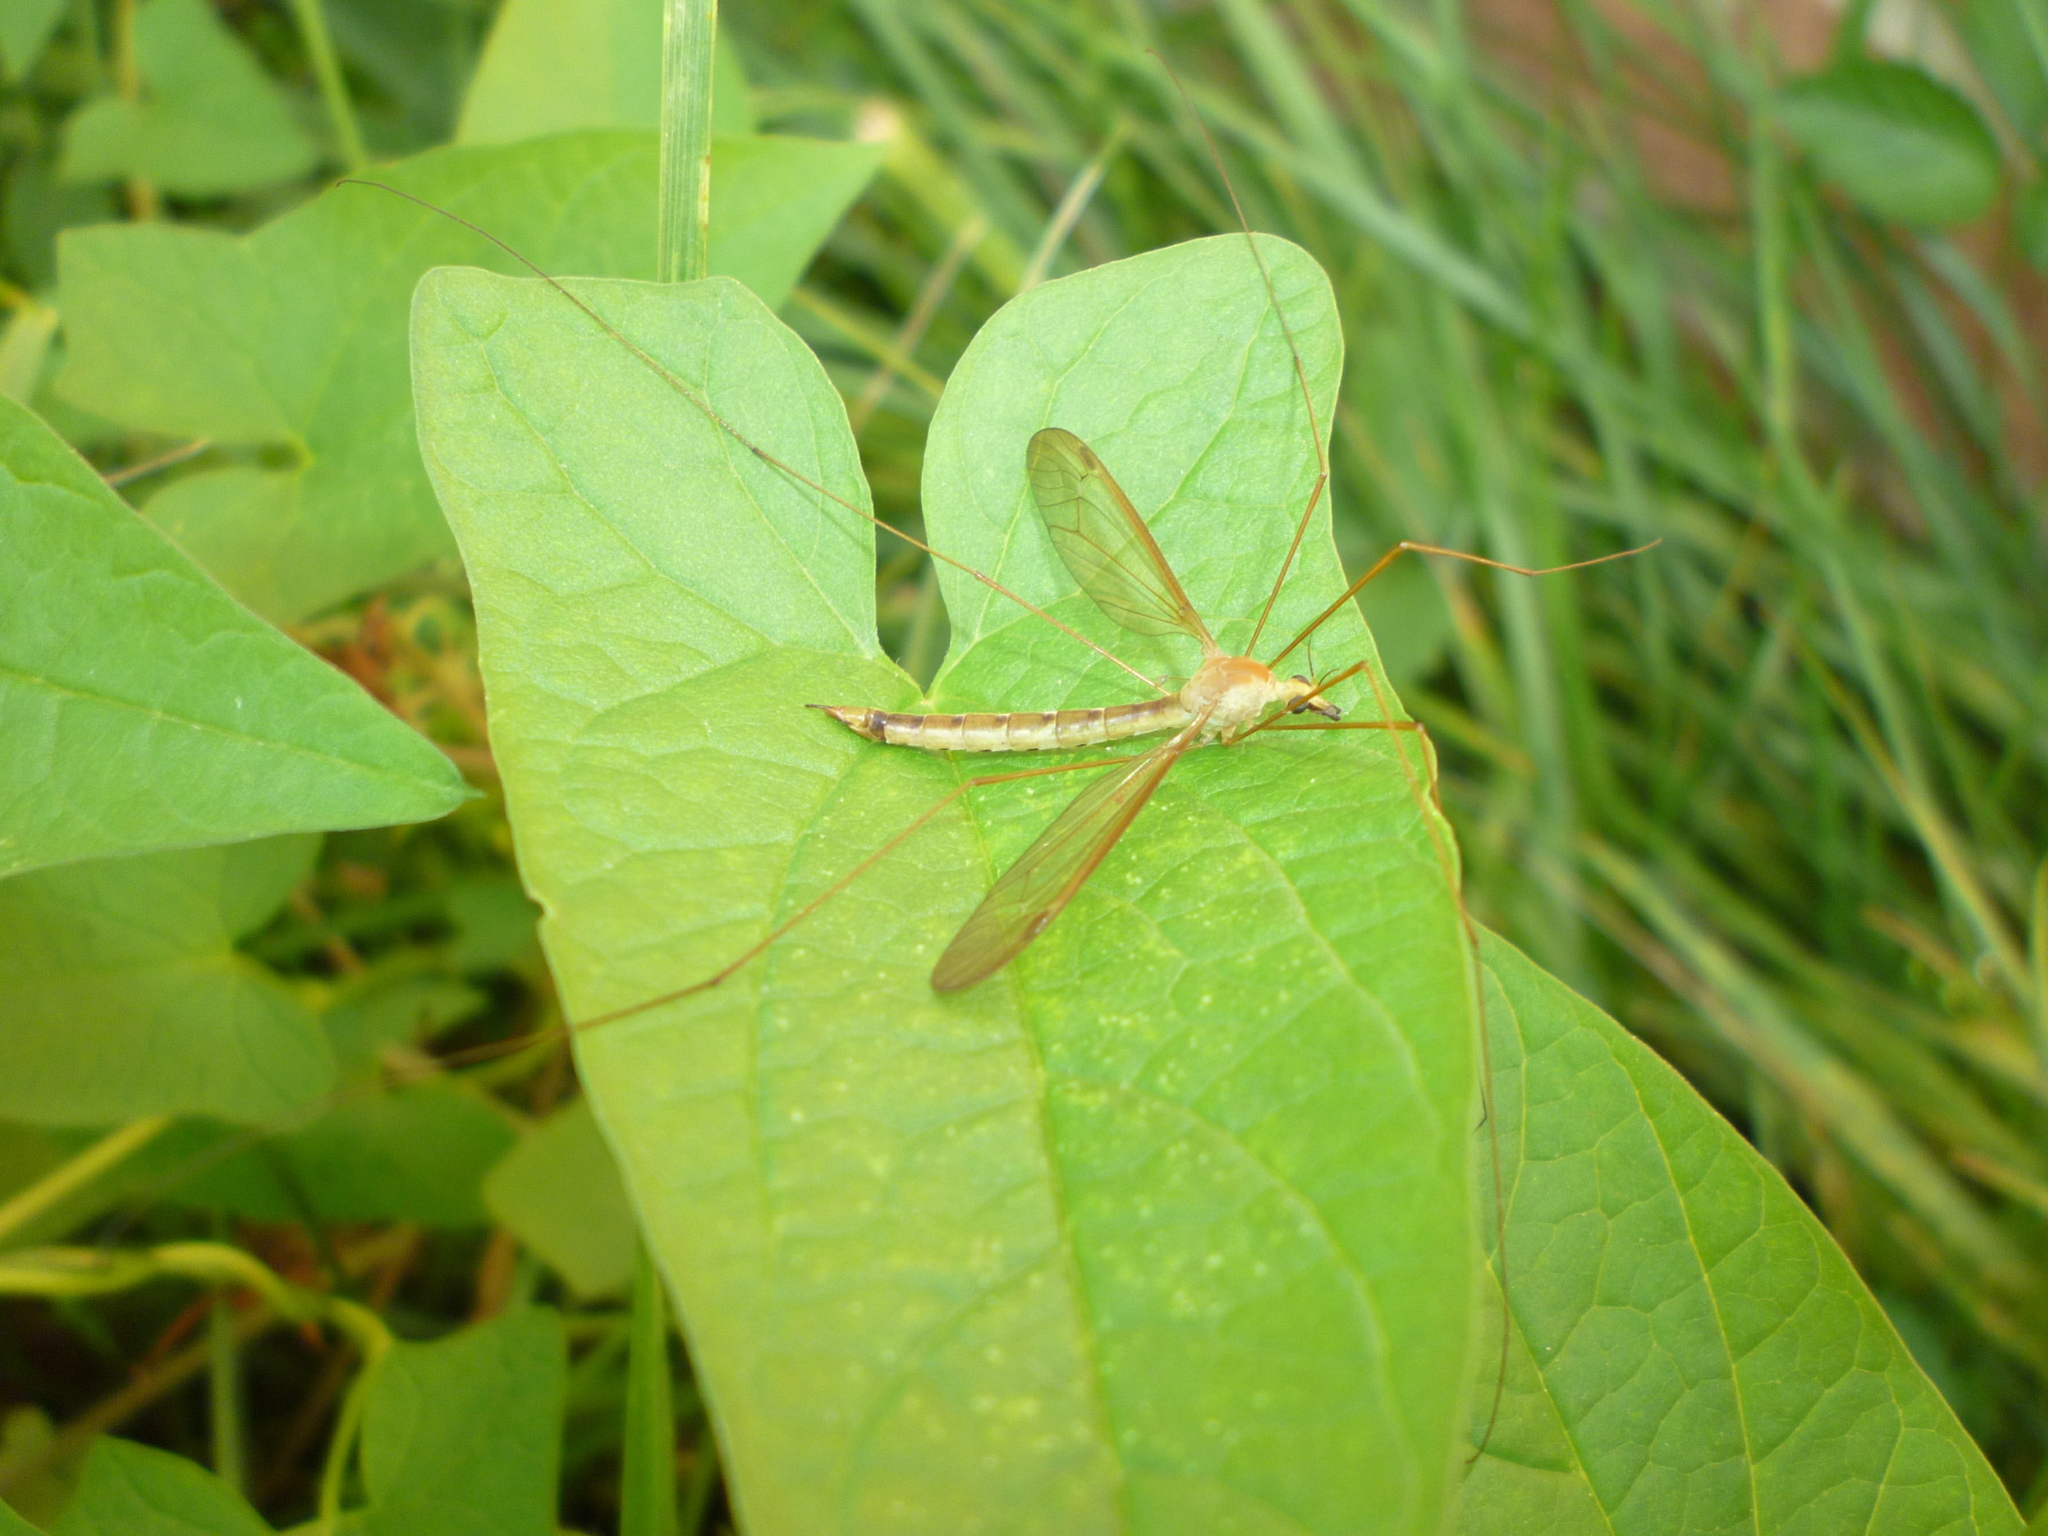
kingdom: Animalia
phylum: Arthropoda
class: Insecta
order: Diptera
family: Tipulidae
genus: Nephrotoma
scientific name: Nephrotoma tenuis
